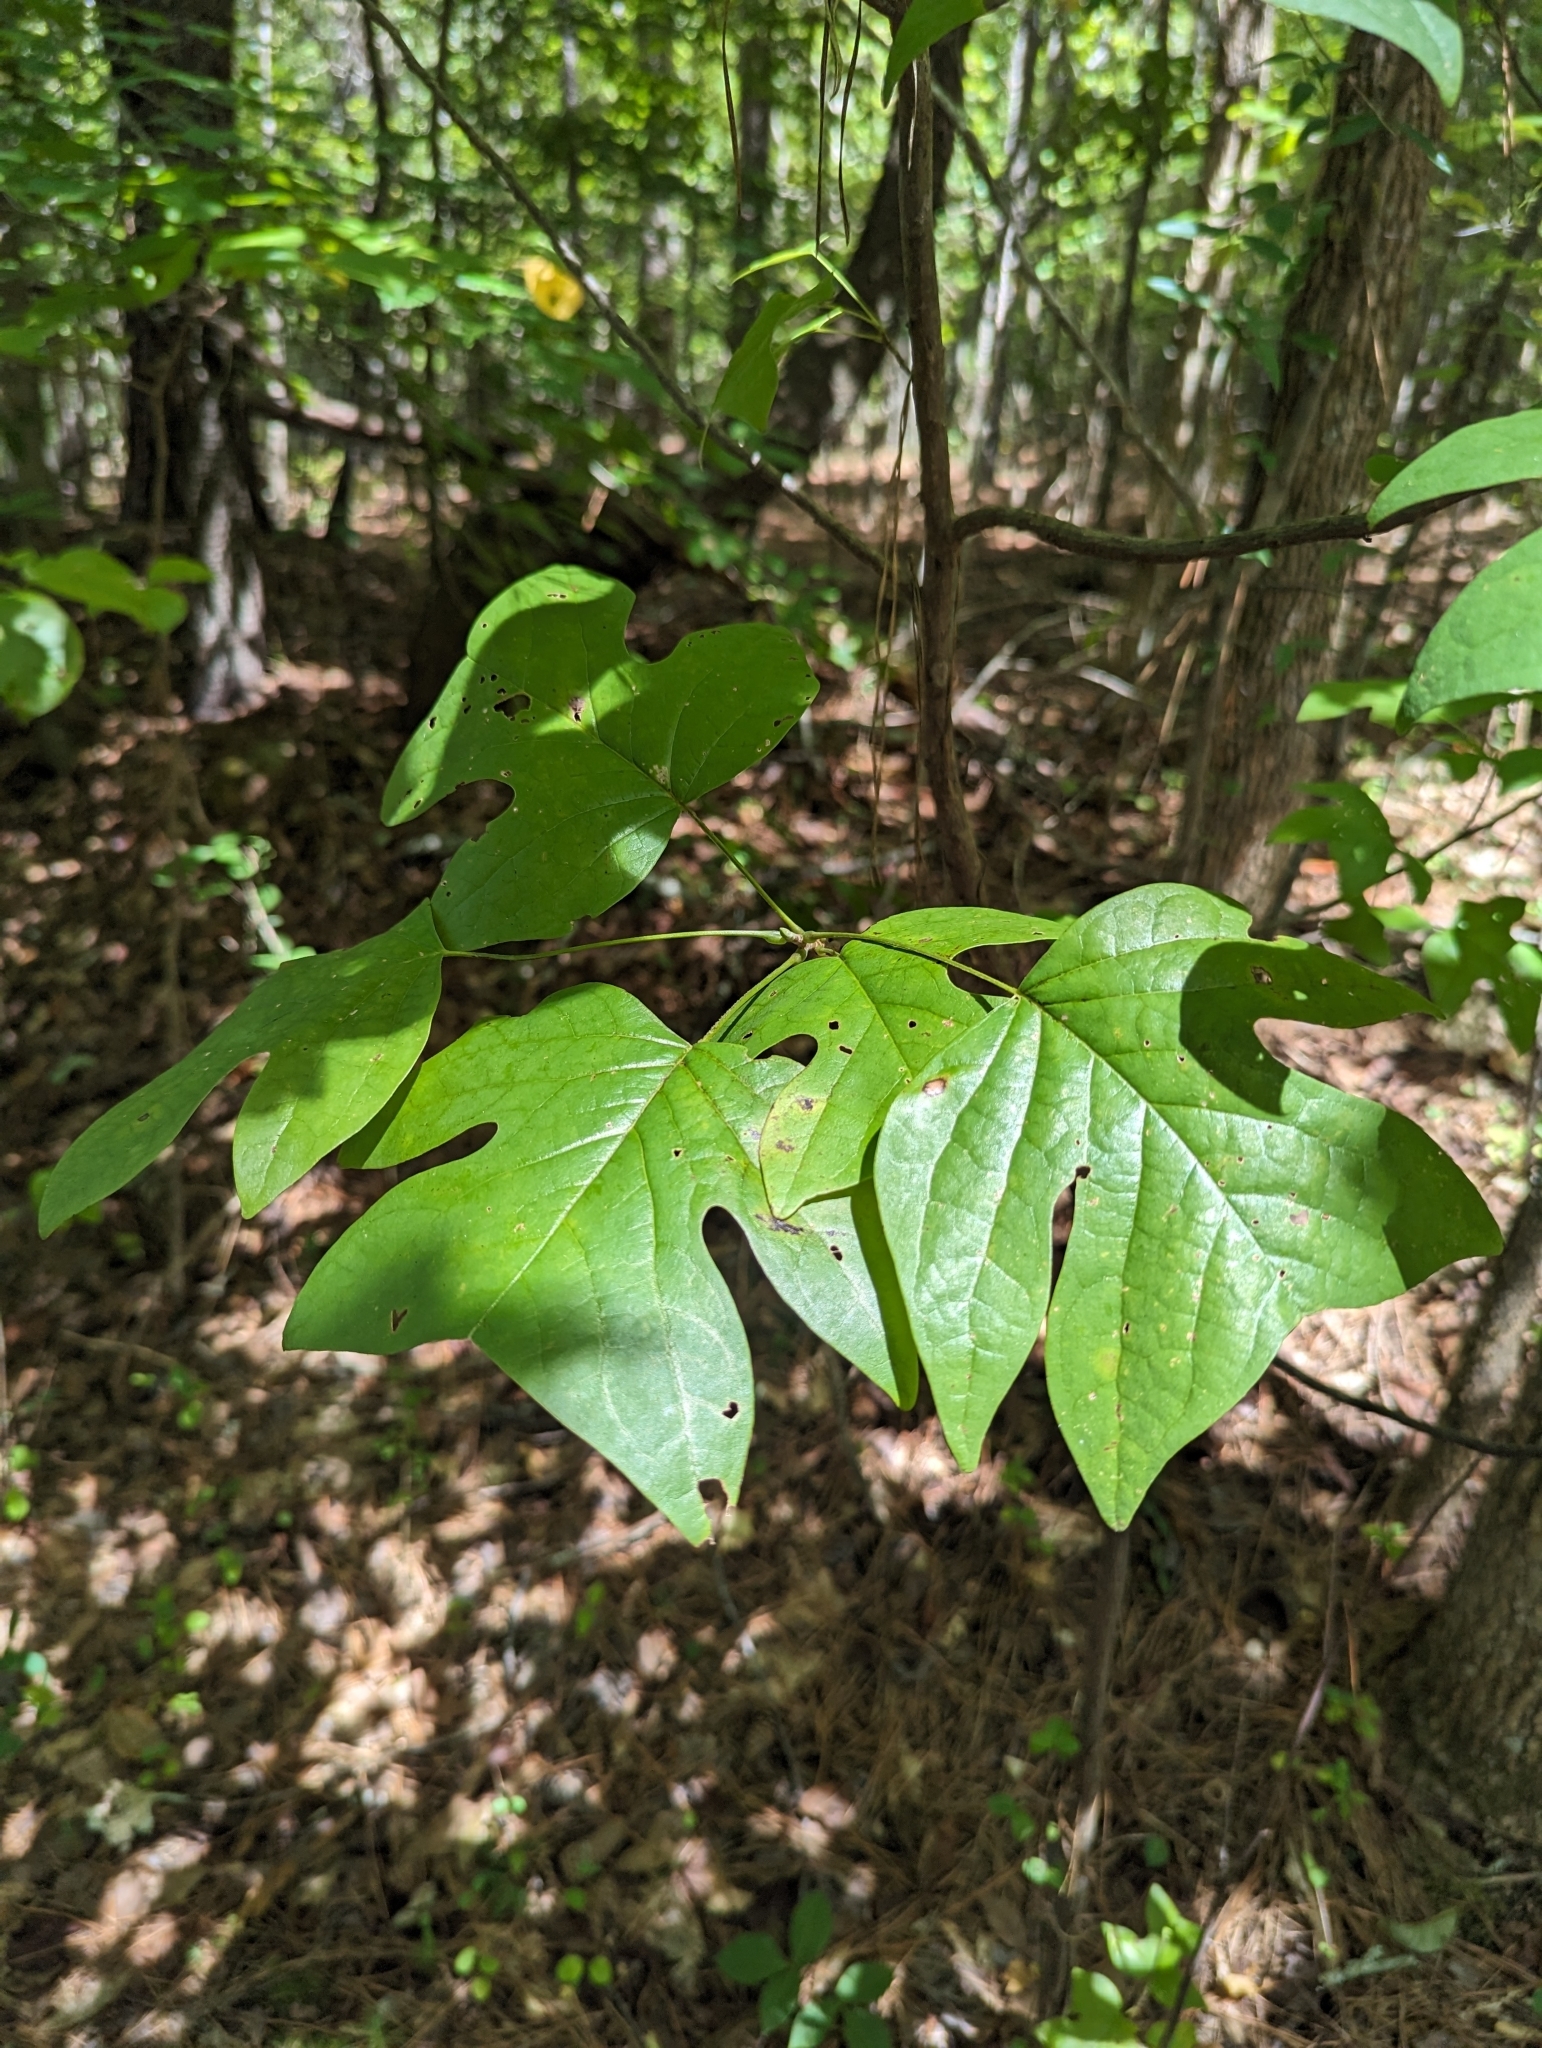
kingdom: Plantae
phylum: Tracheophyta
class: Magnoliopsida
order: Magnoliales
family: Magnoliaceae
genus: Liriodendron
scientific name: Liriodendron tulipifera
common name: Tulip tree
